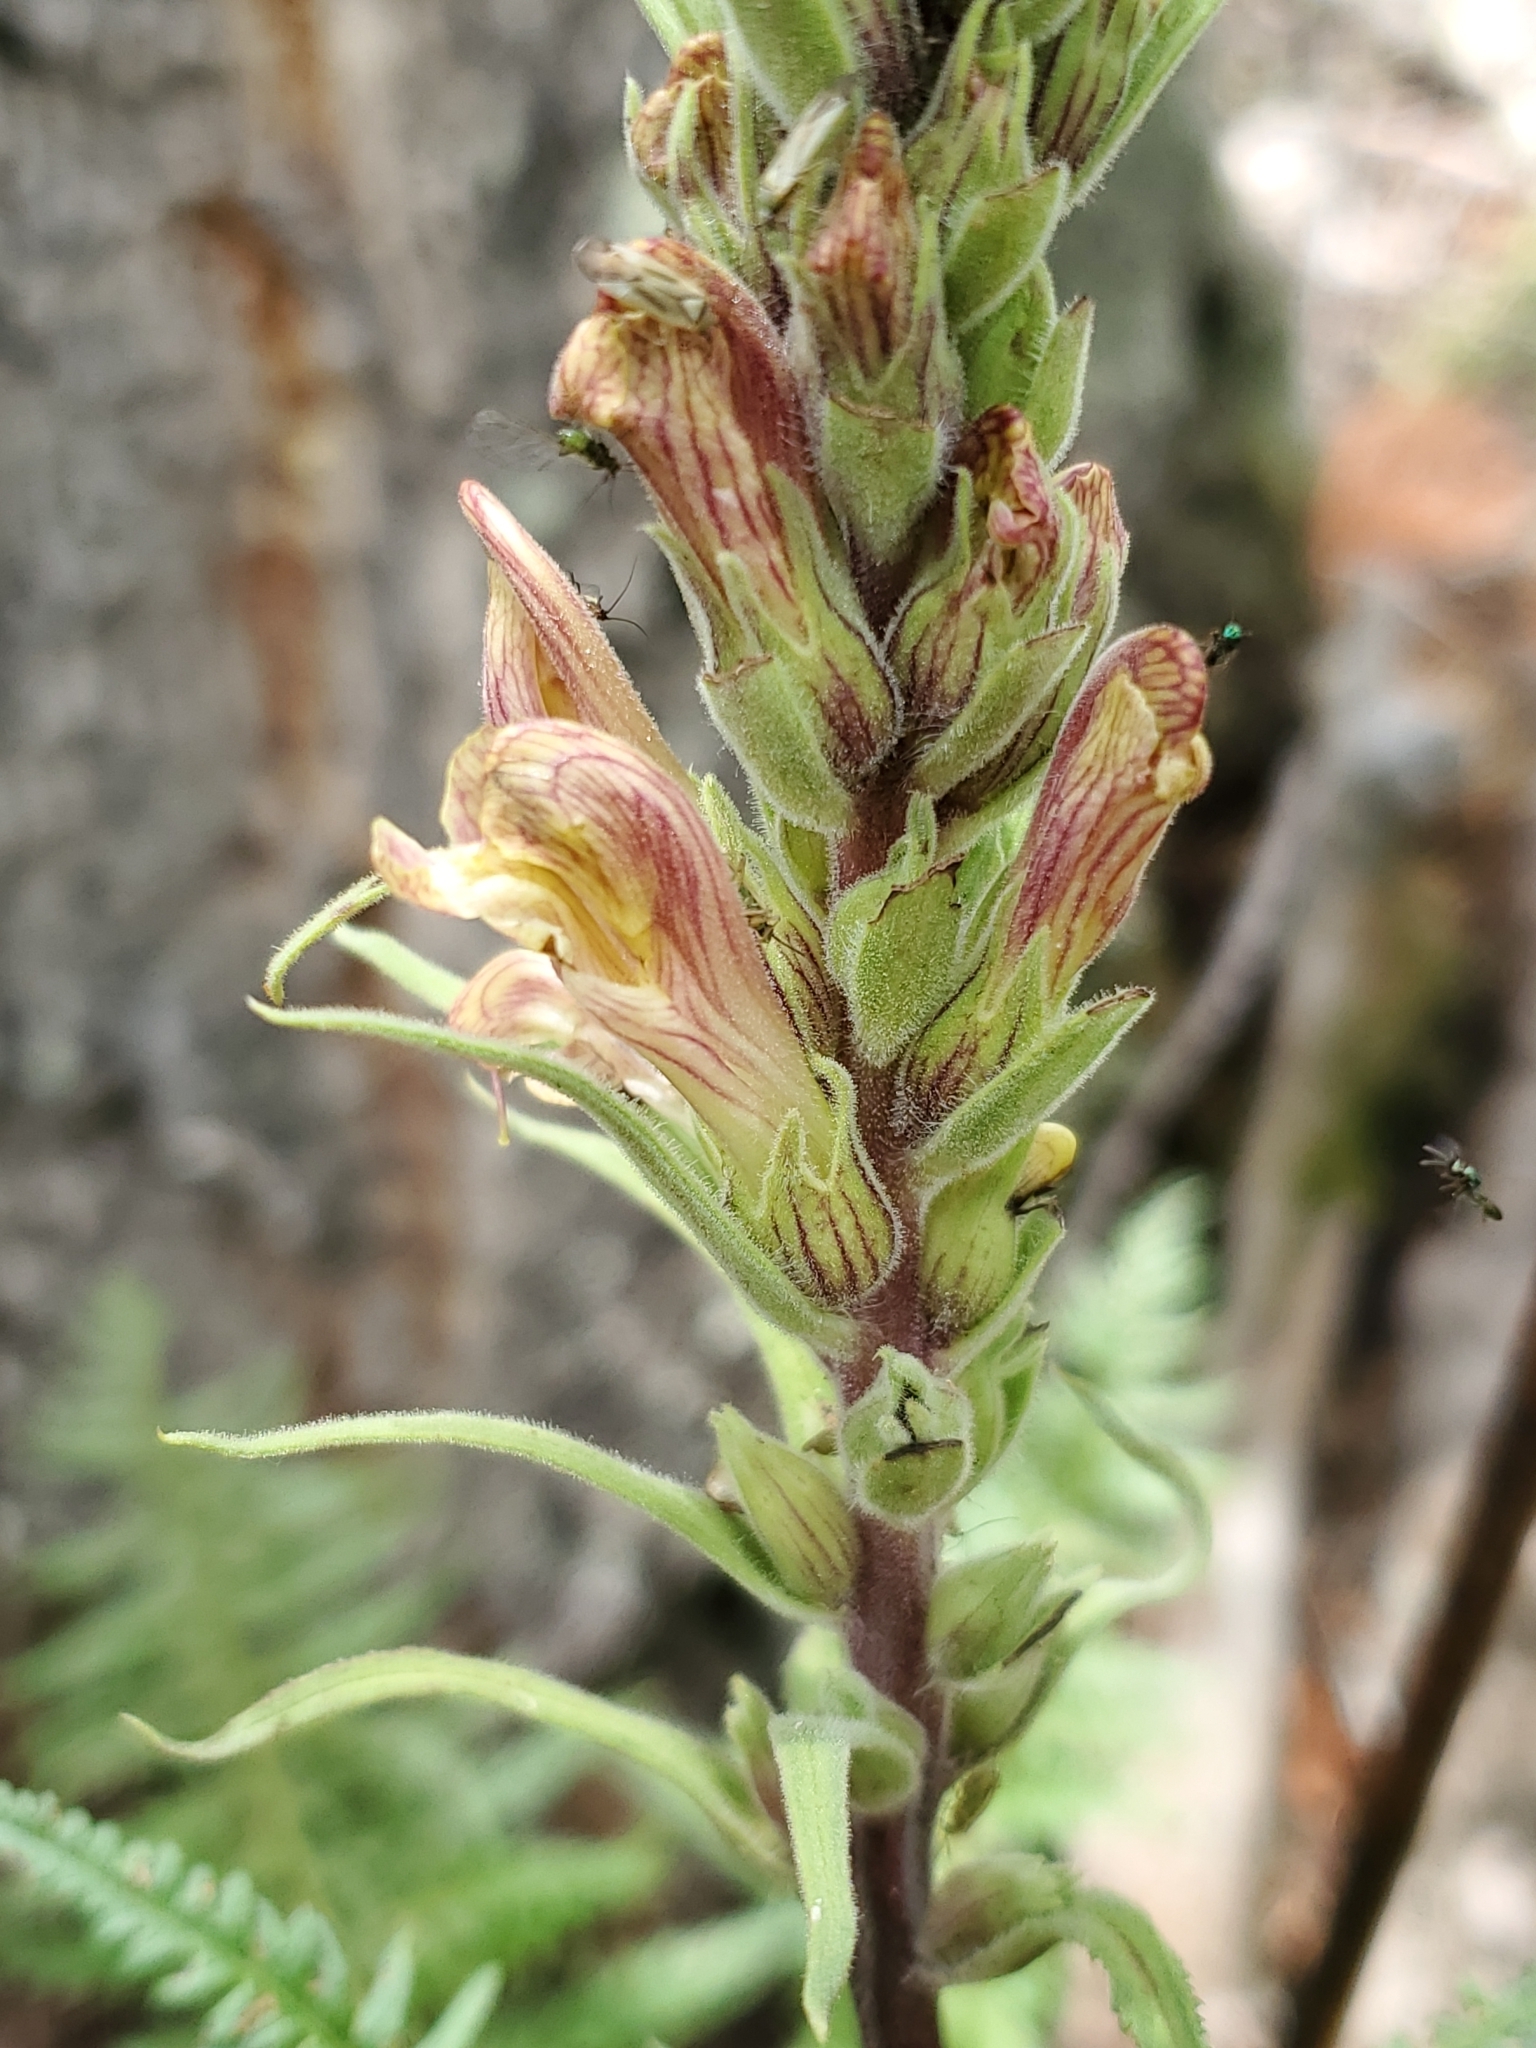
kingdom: Plantae
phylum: Tracheophyta
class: Magnoliopsida
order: Lamiales
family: Orobanchaceae
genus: Pedicularis
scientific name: Pedicularis procera
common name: Gray's lousewort
